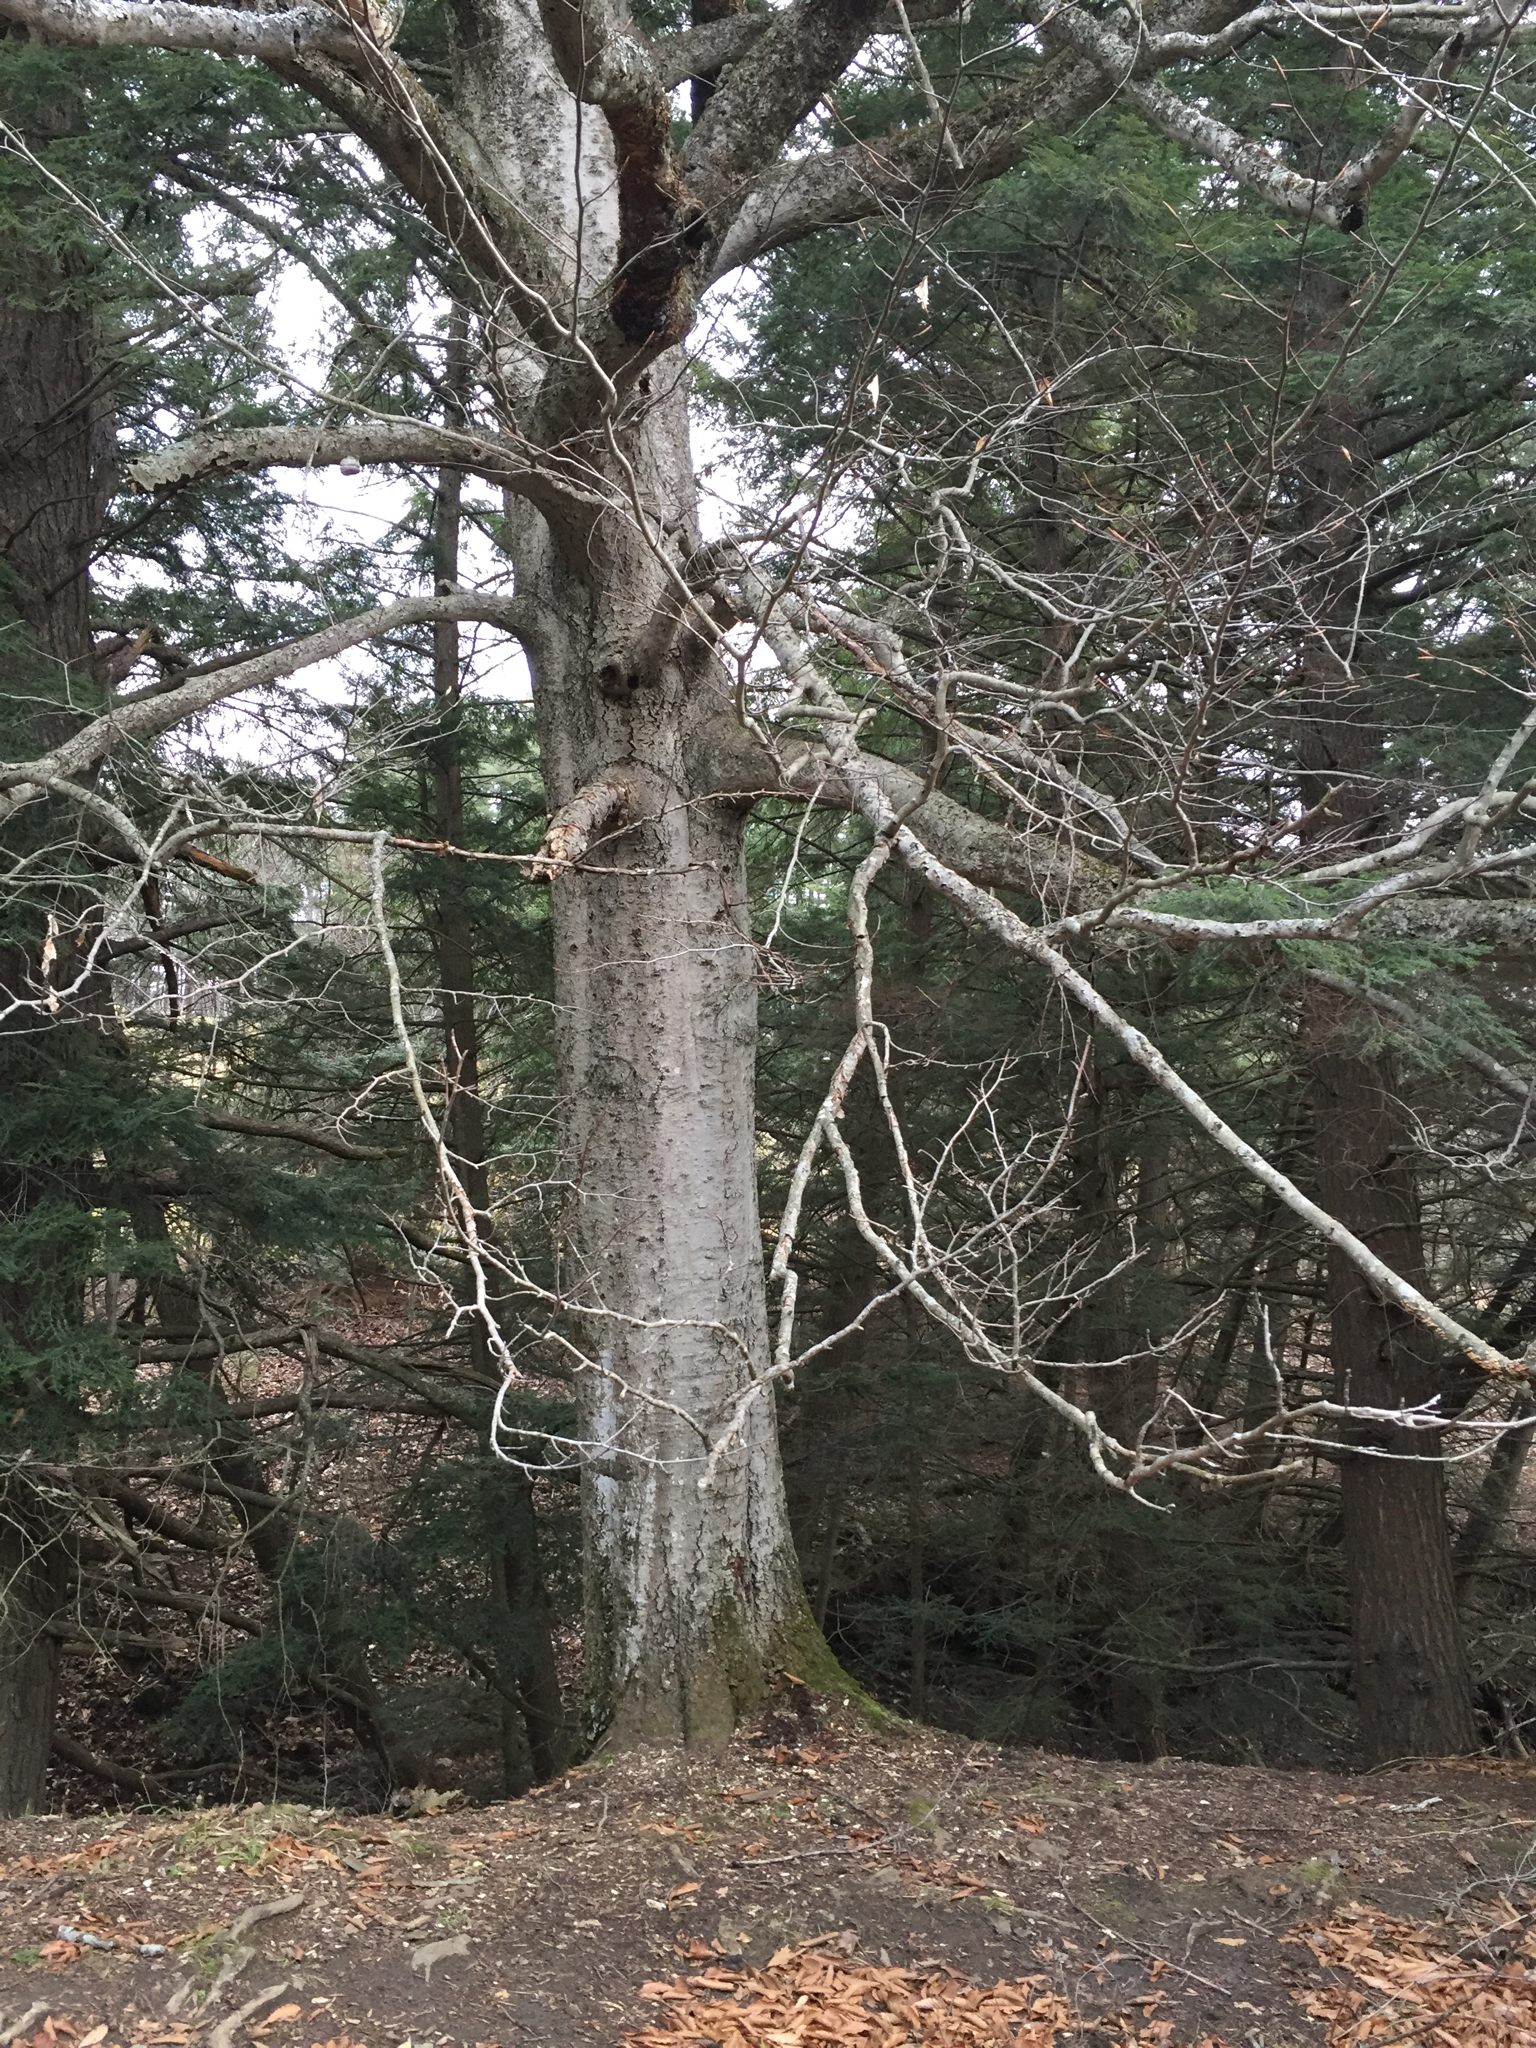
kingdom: Plantae
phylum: Tracheophyta
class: Magnoliopsida
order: Fagales
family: Fagaceae
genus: Fagus
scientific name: Fagus grandifolia
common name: American beech
